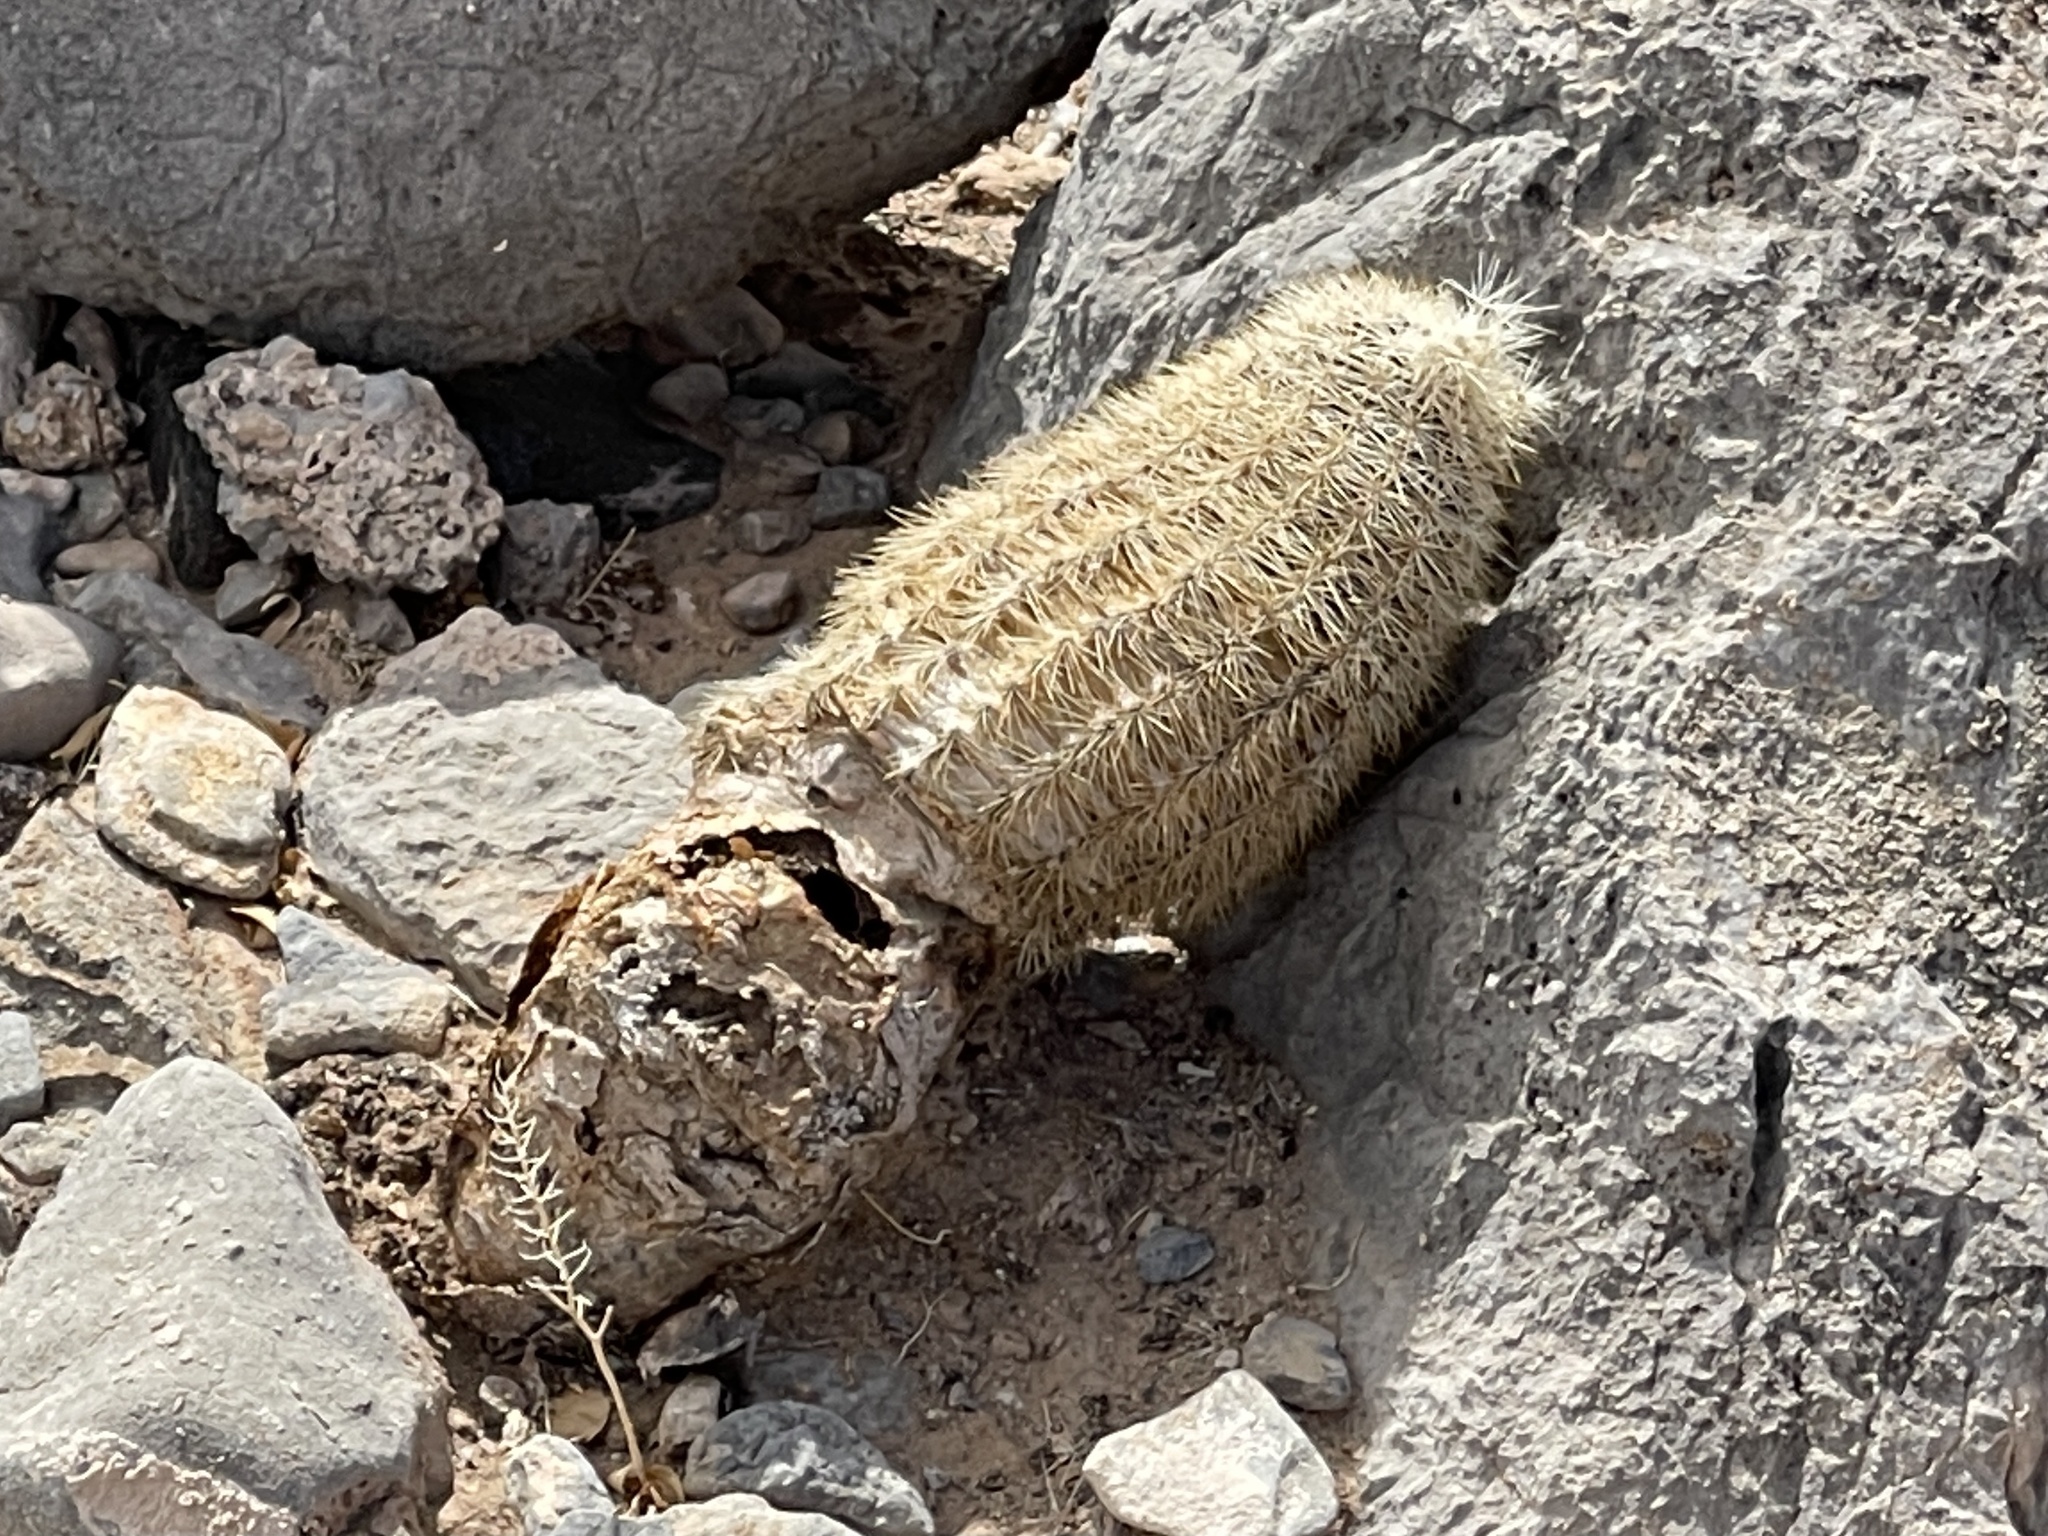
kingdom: Plantae
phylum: Tracheophyta
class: Magnoliopsida
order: Caryophyllales
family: Cactaceae
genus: Echinocereus
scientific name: Echinocereus dasyacanthus
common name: Spiny hedgehog cactus
